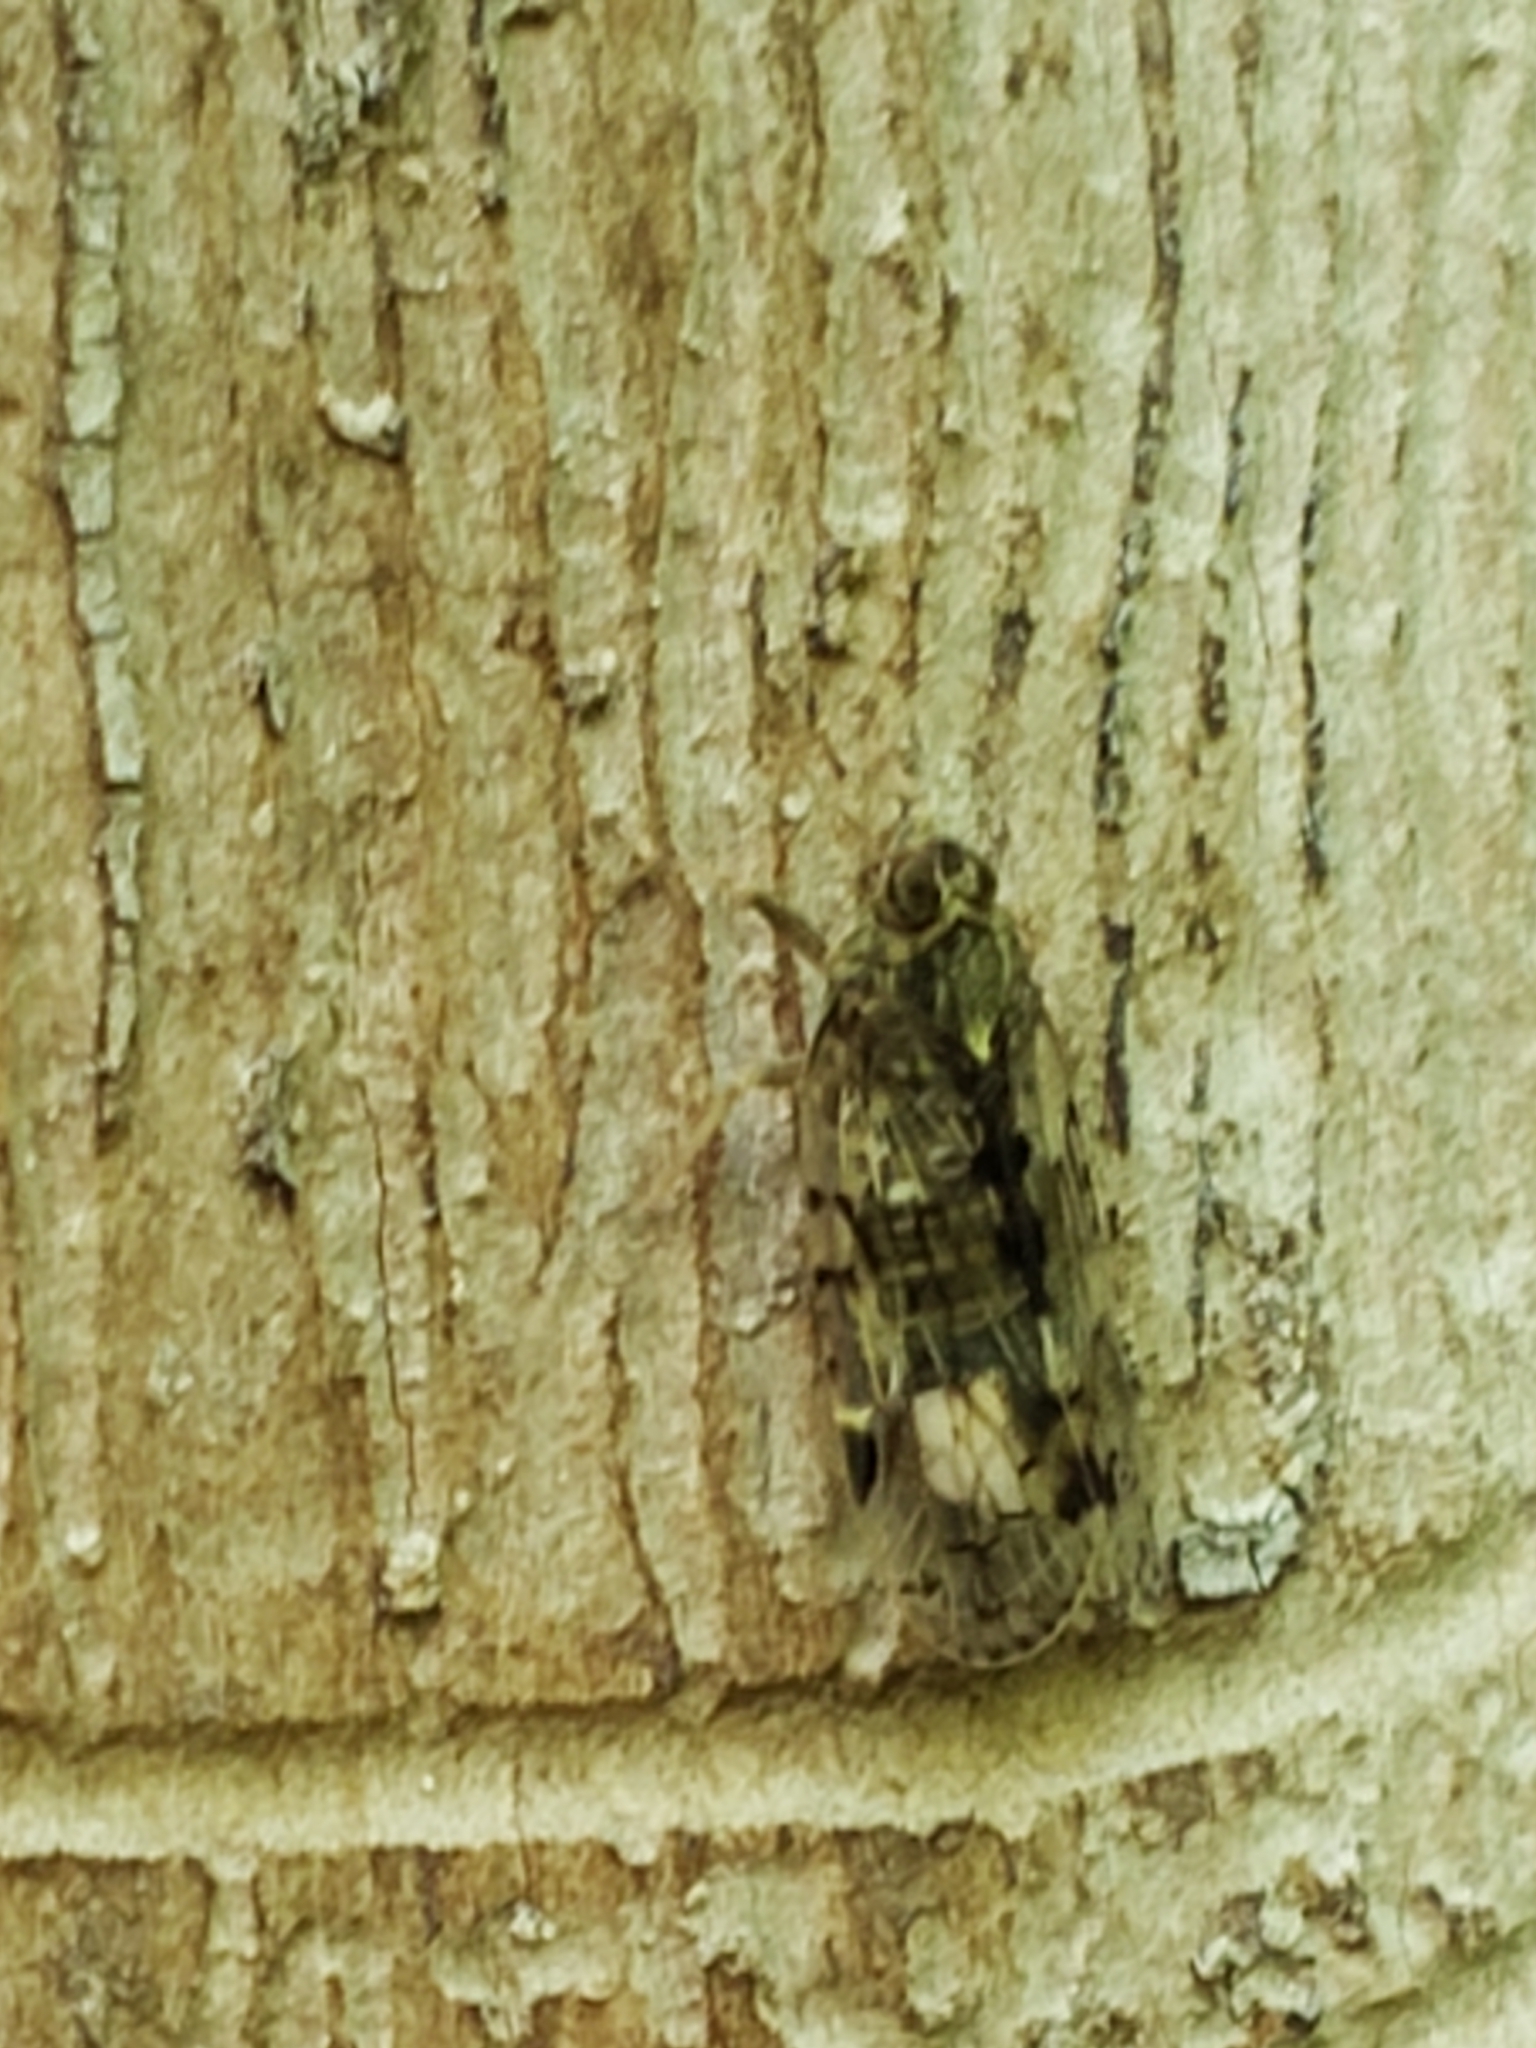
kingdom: Animalia
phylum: Arthropoda
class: Insecta
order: Hemiptera
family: Cixiidae
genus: Melanoliarus
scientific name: Melanoliarus placitus
